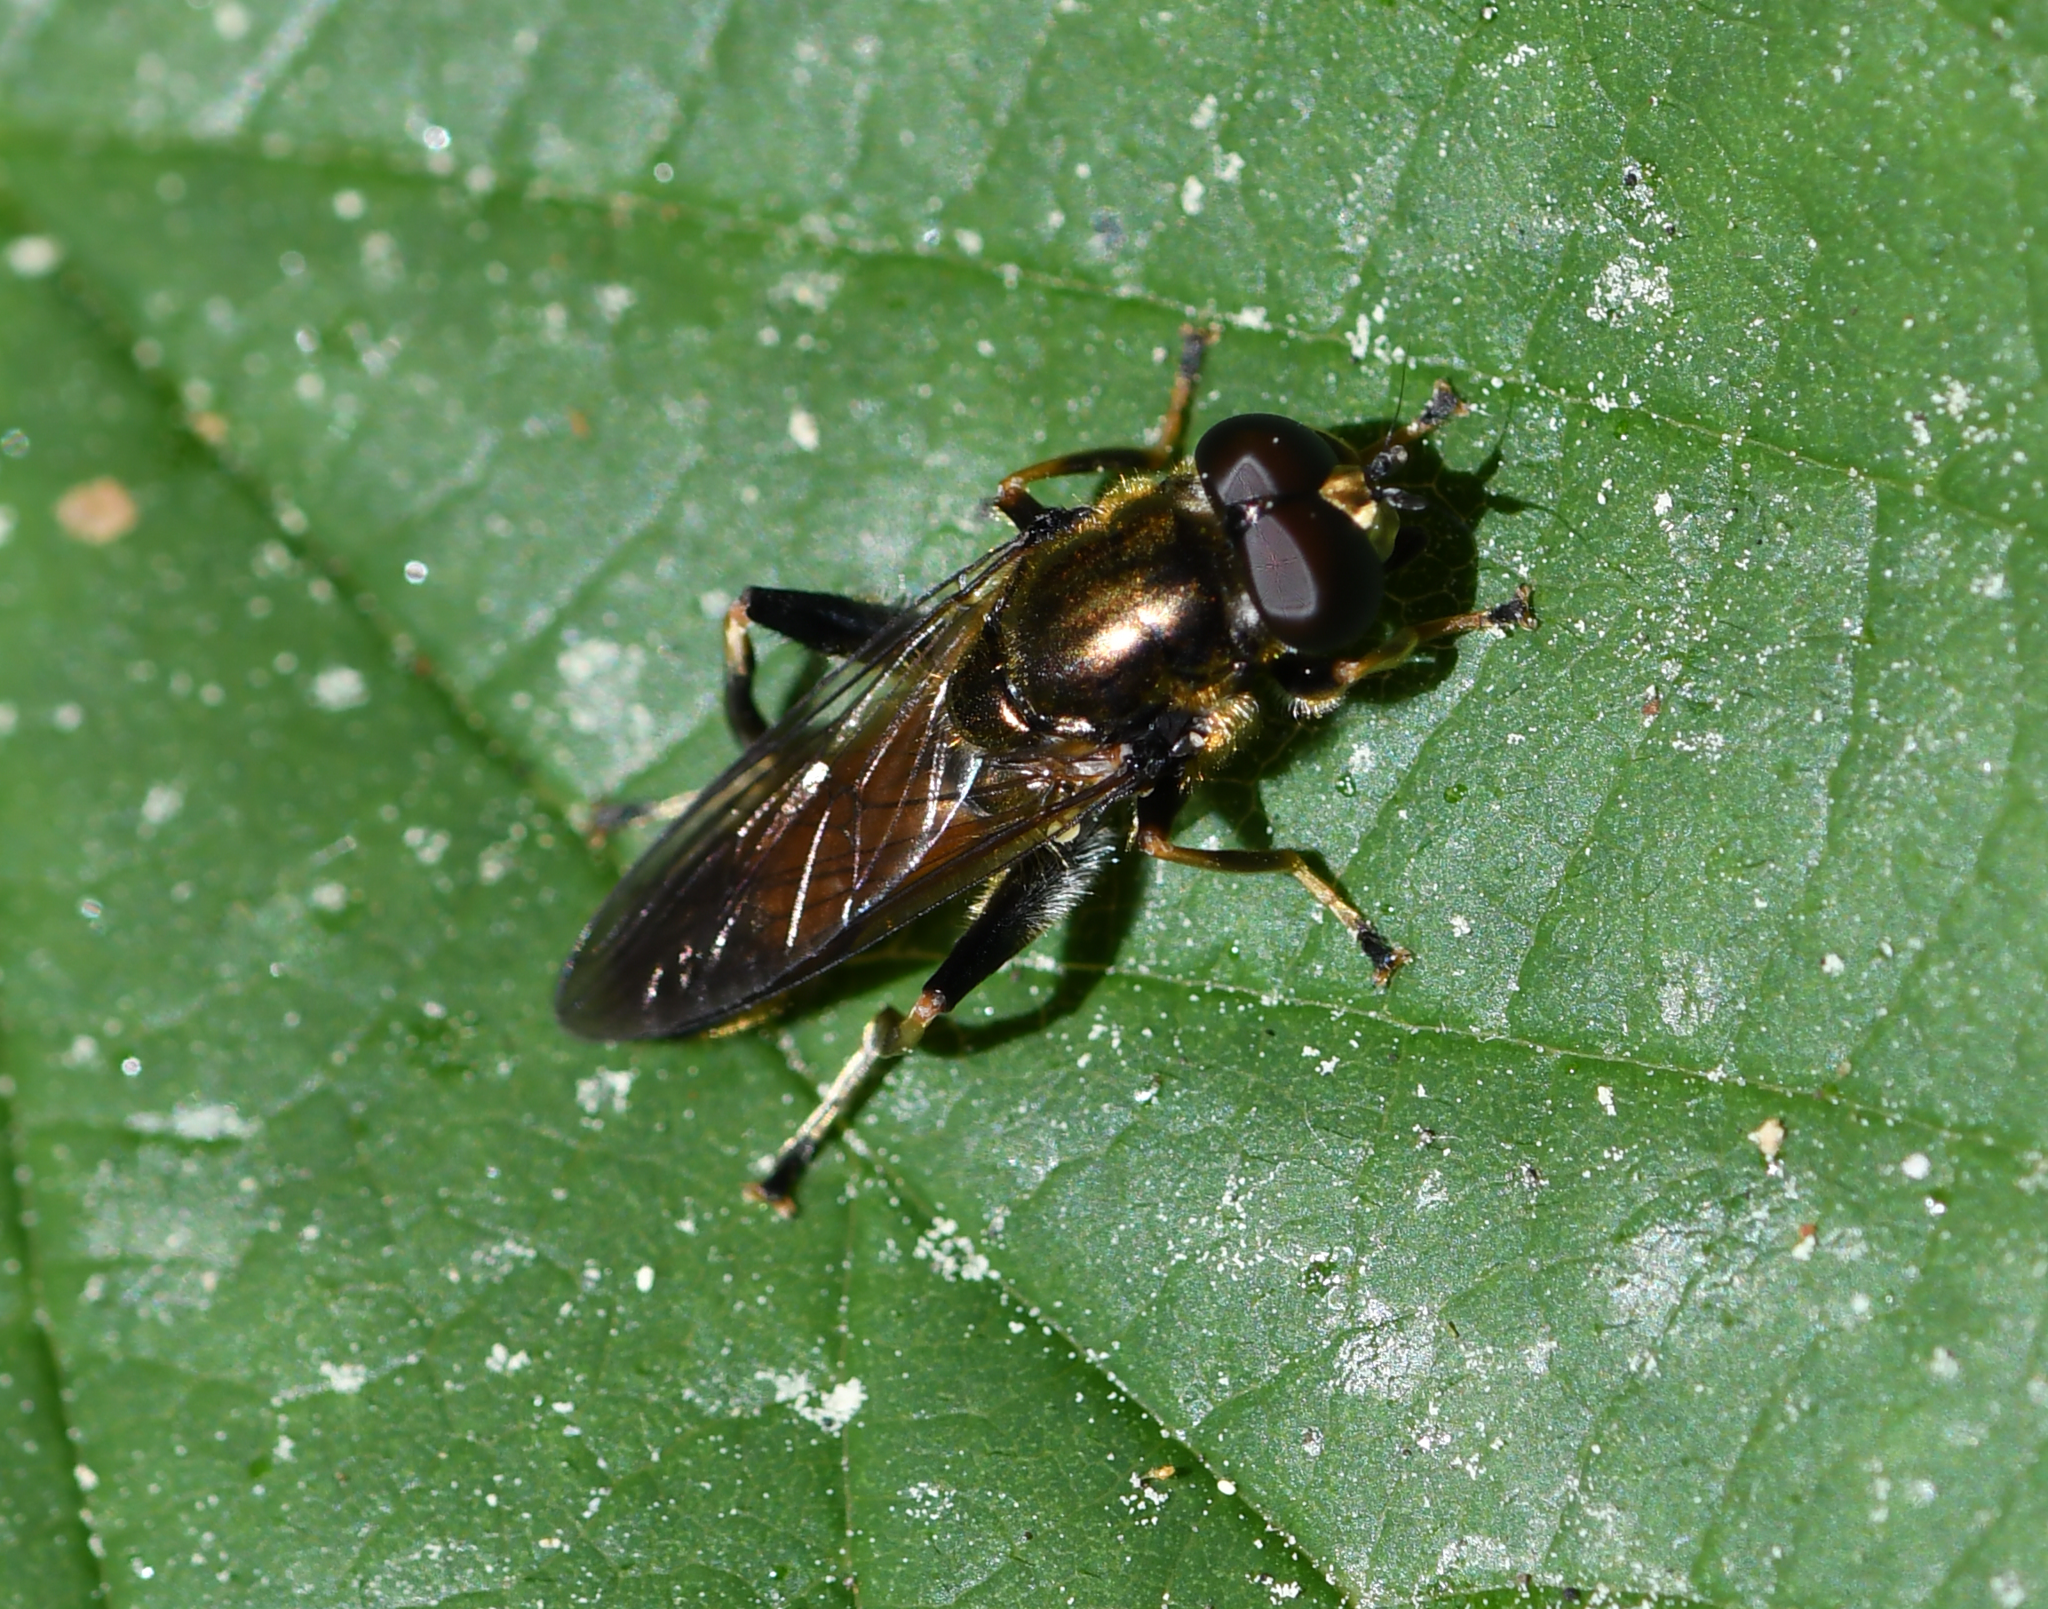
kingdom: Animalia
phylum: Arthropoda
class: Insecta
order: Diptera
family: Syrphidae
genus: Xylota
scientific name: Xylota segnis
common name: Brown-toed forest fly
